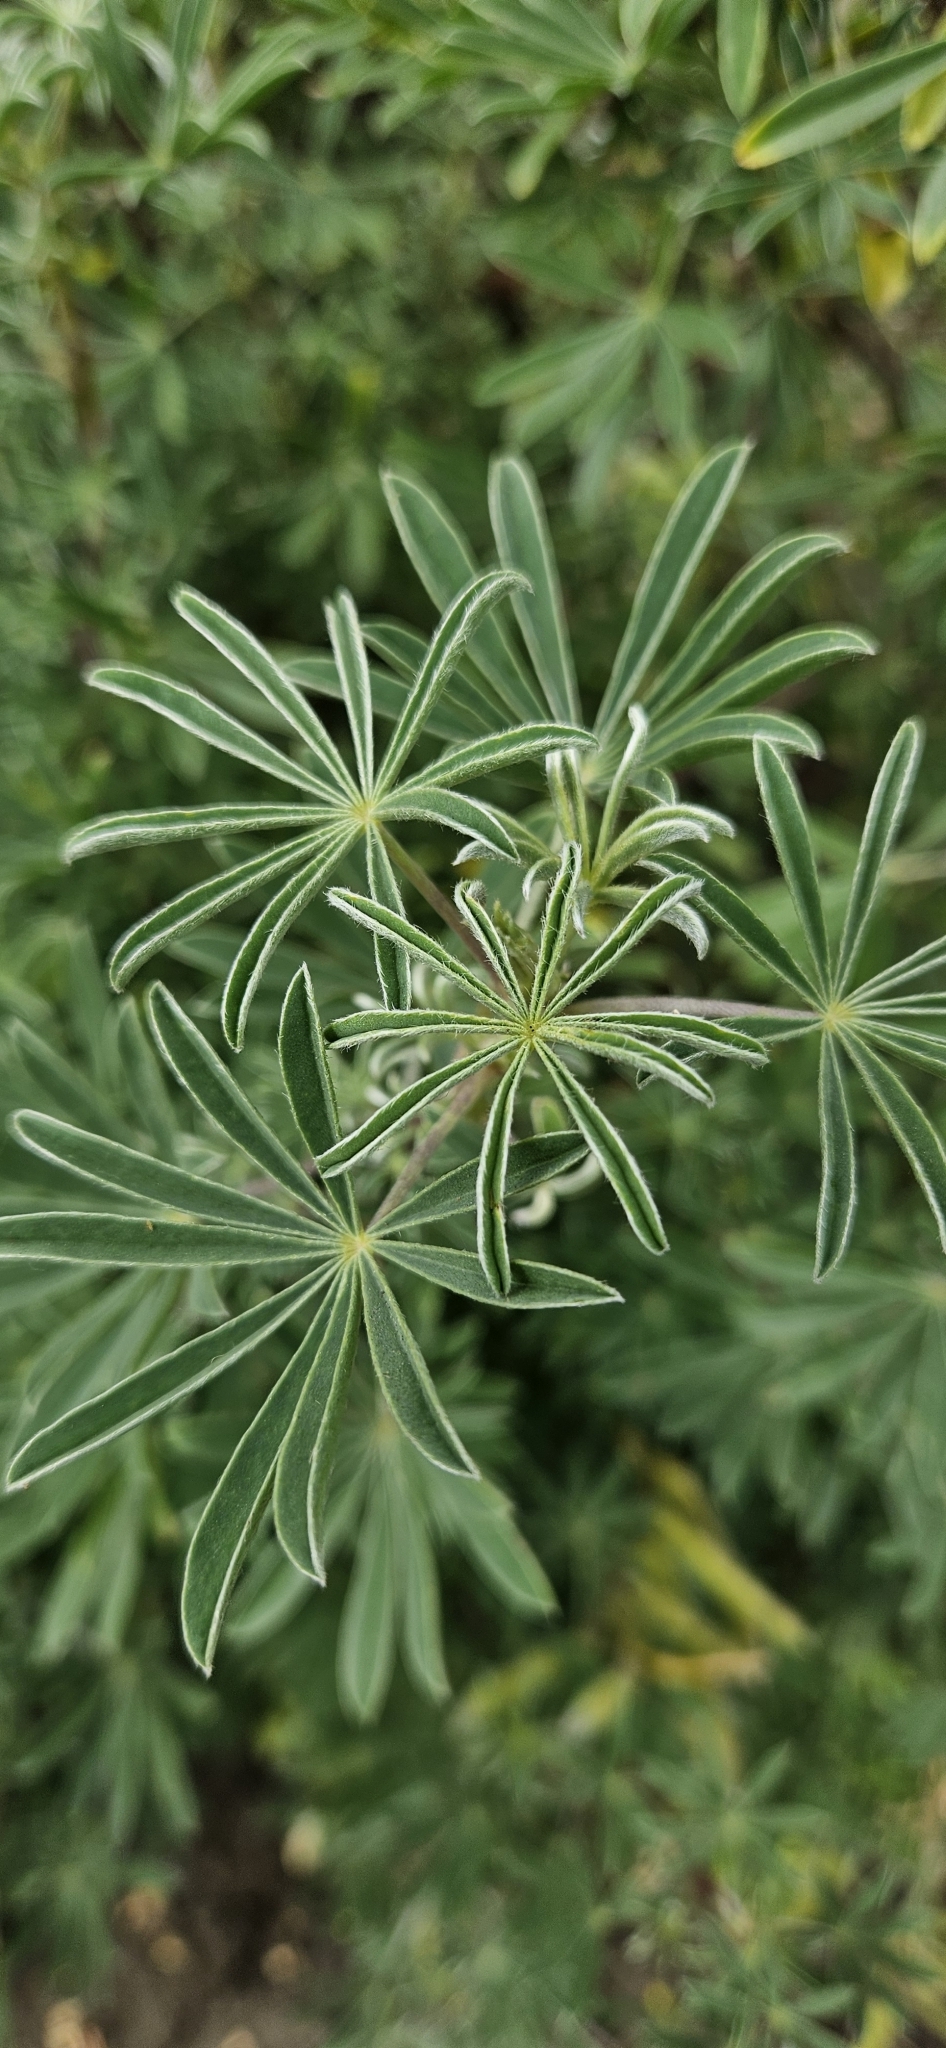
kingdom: Plantae
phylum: Tracheophyta
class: Magnoliopsida
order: Fabales
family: Fabaceae
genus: Lupinus
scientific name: Lupinus arboreus
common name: Yellow bush lupine
